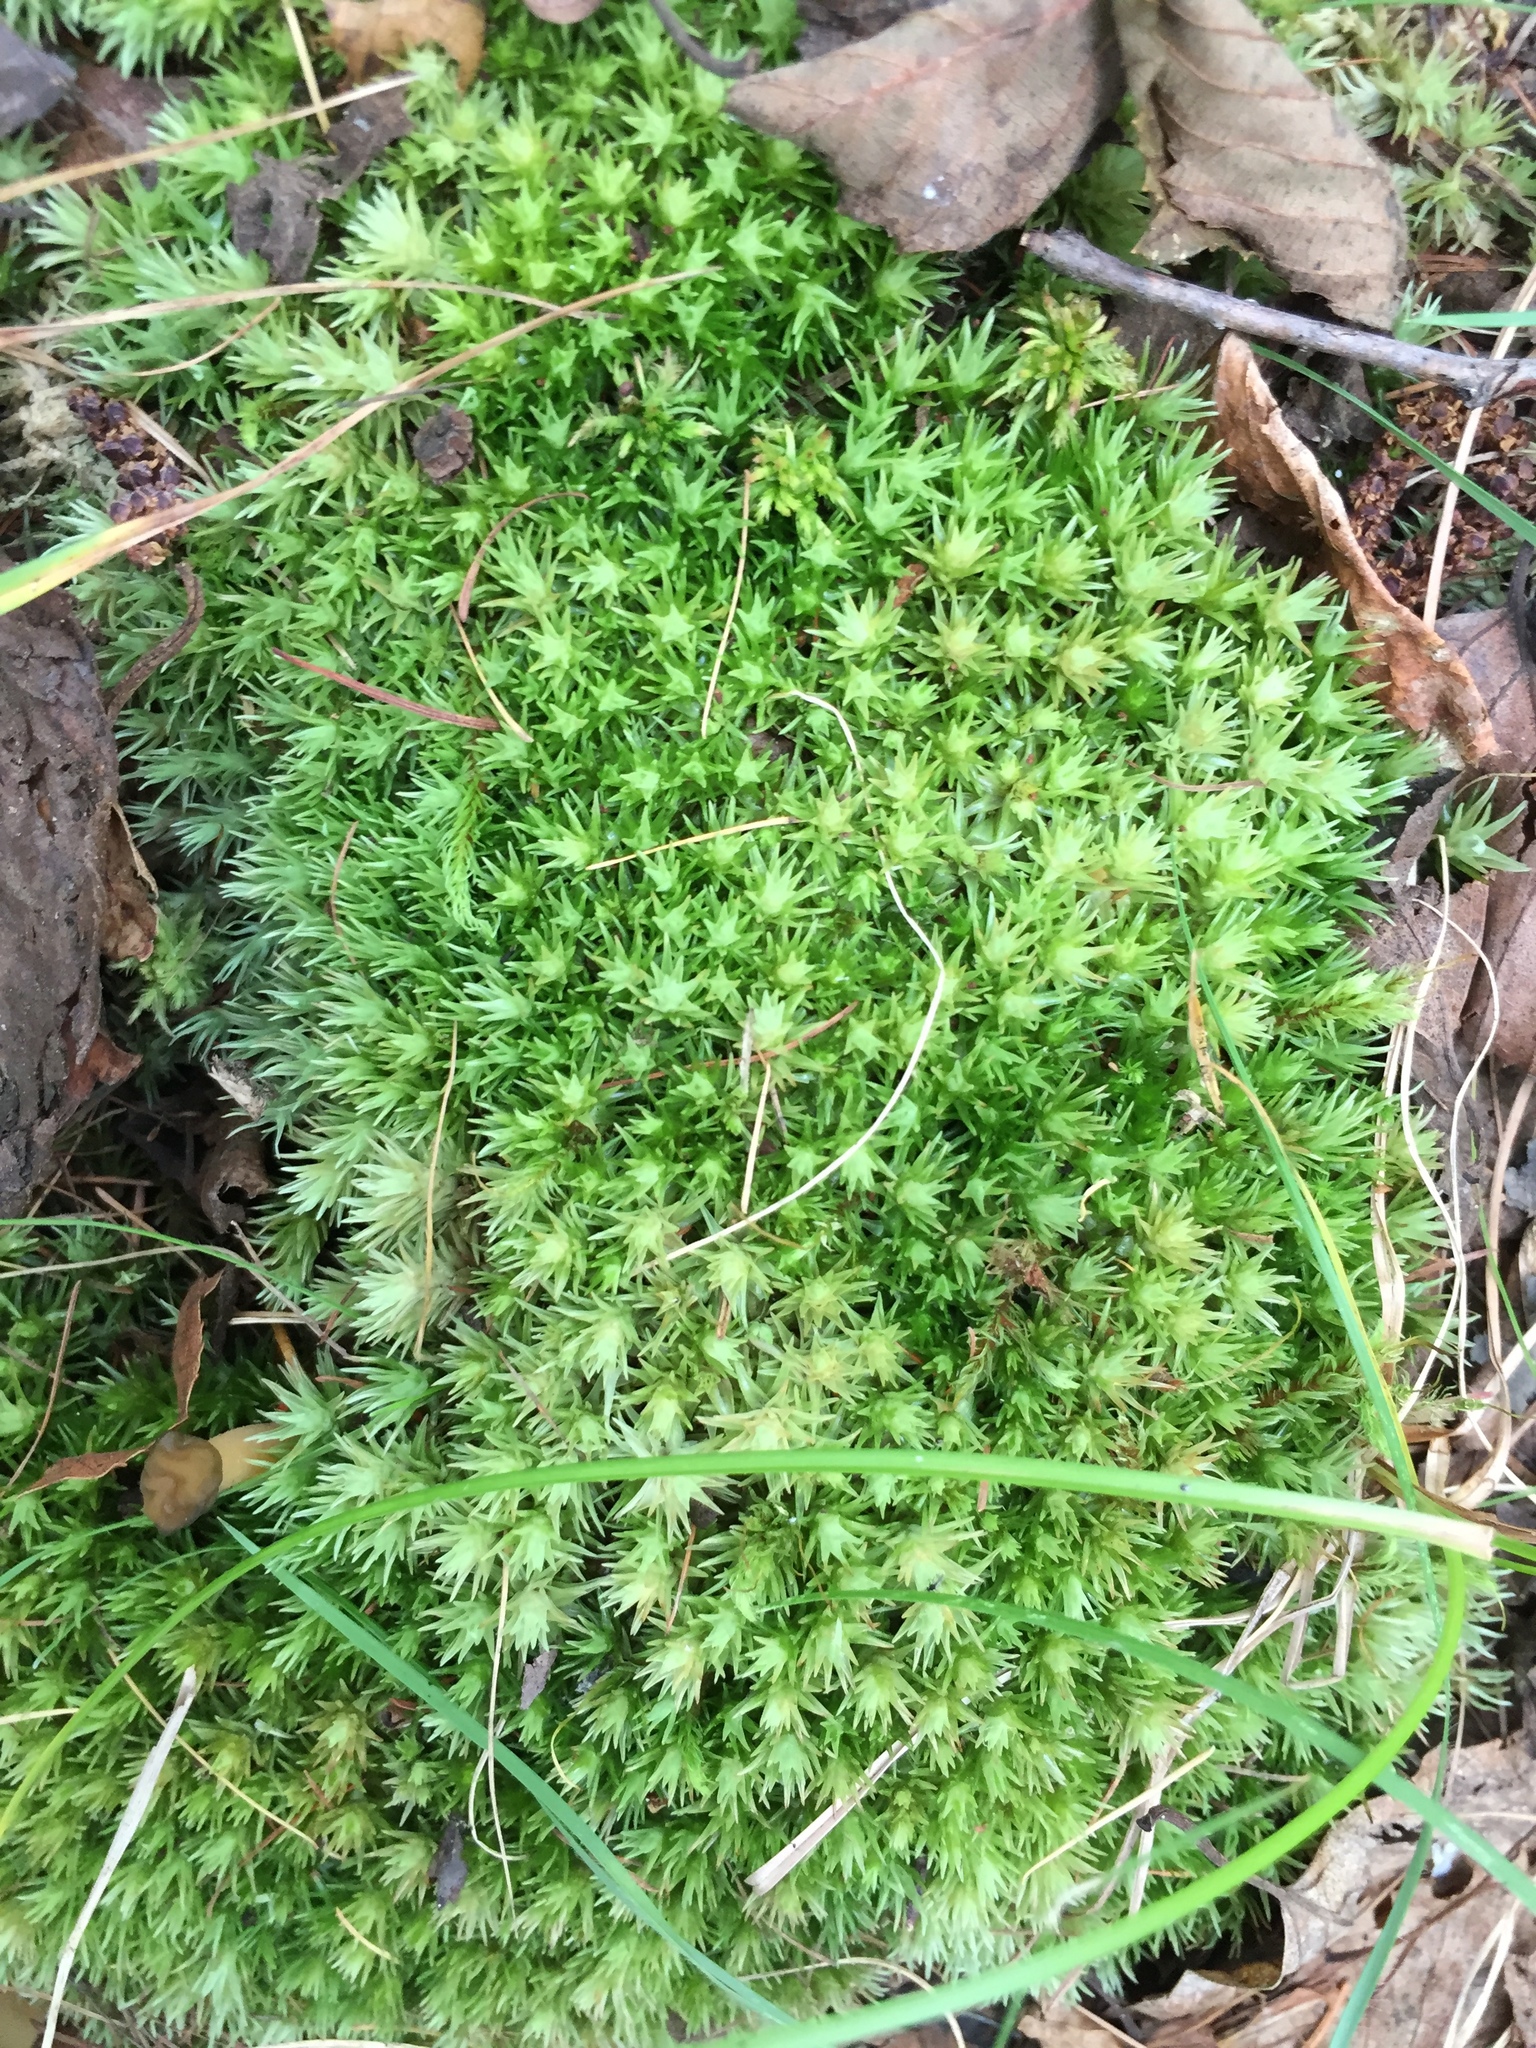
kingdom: Plantae
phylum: Bryophyta
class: Bryopsida
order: Dicranales
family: Leucobryaceae
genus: Leucobryum
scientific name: Leucobryum glaucum
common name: Large white-moss
